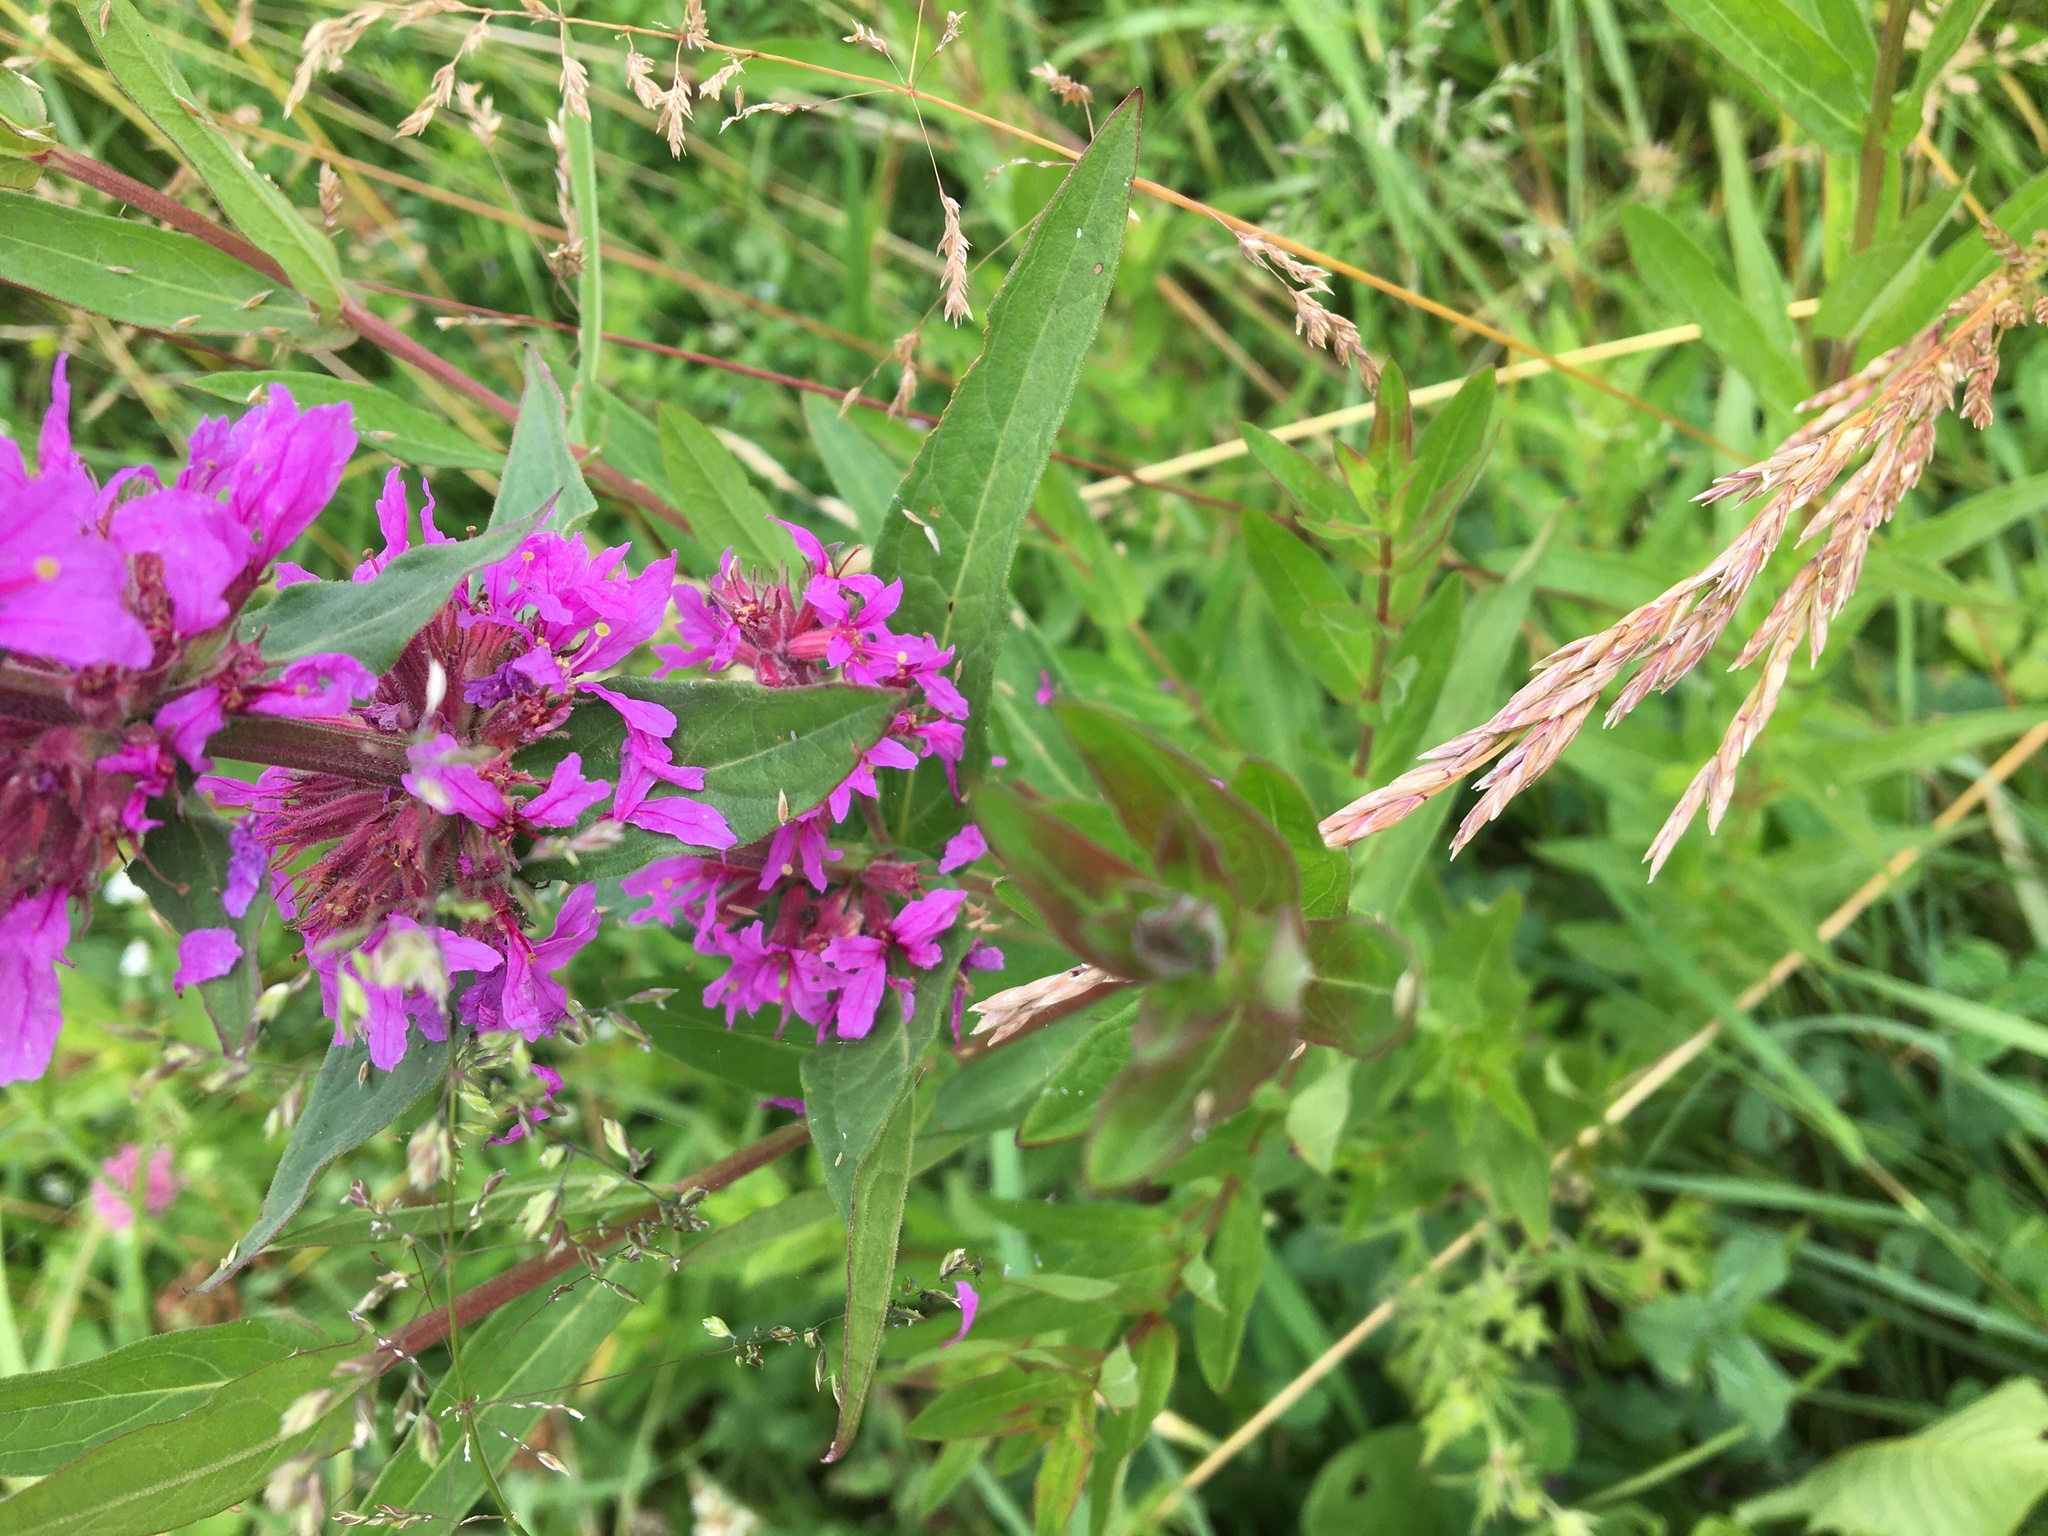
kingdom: Plantae
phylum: Tracheophyta
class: Magnoliopsida
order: Myrtales
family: Lythraceae
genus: Lythrum
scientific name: Lythrum salicaria
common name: Purple loosestrife
